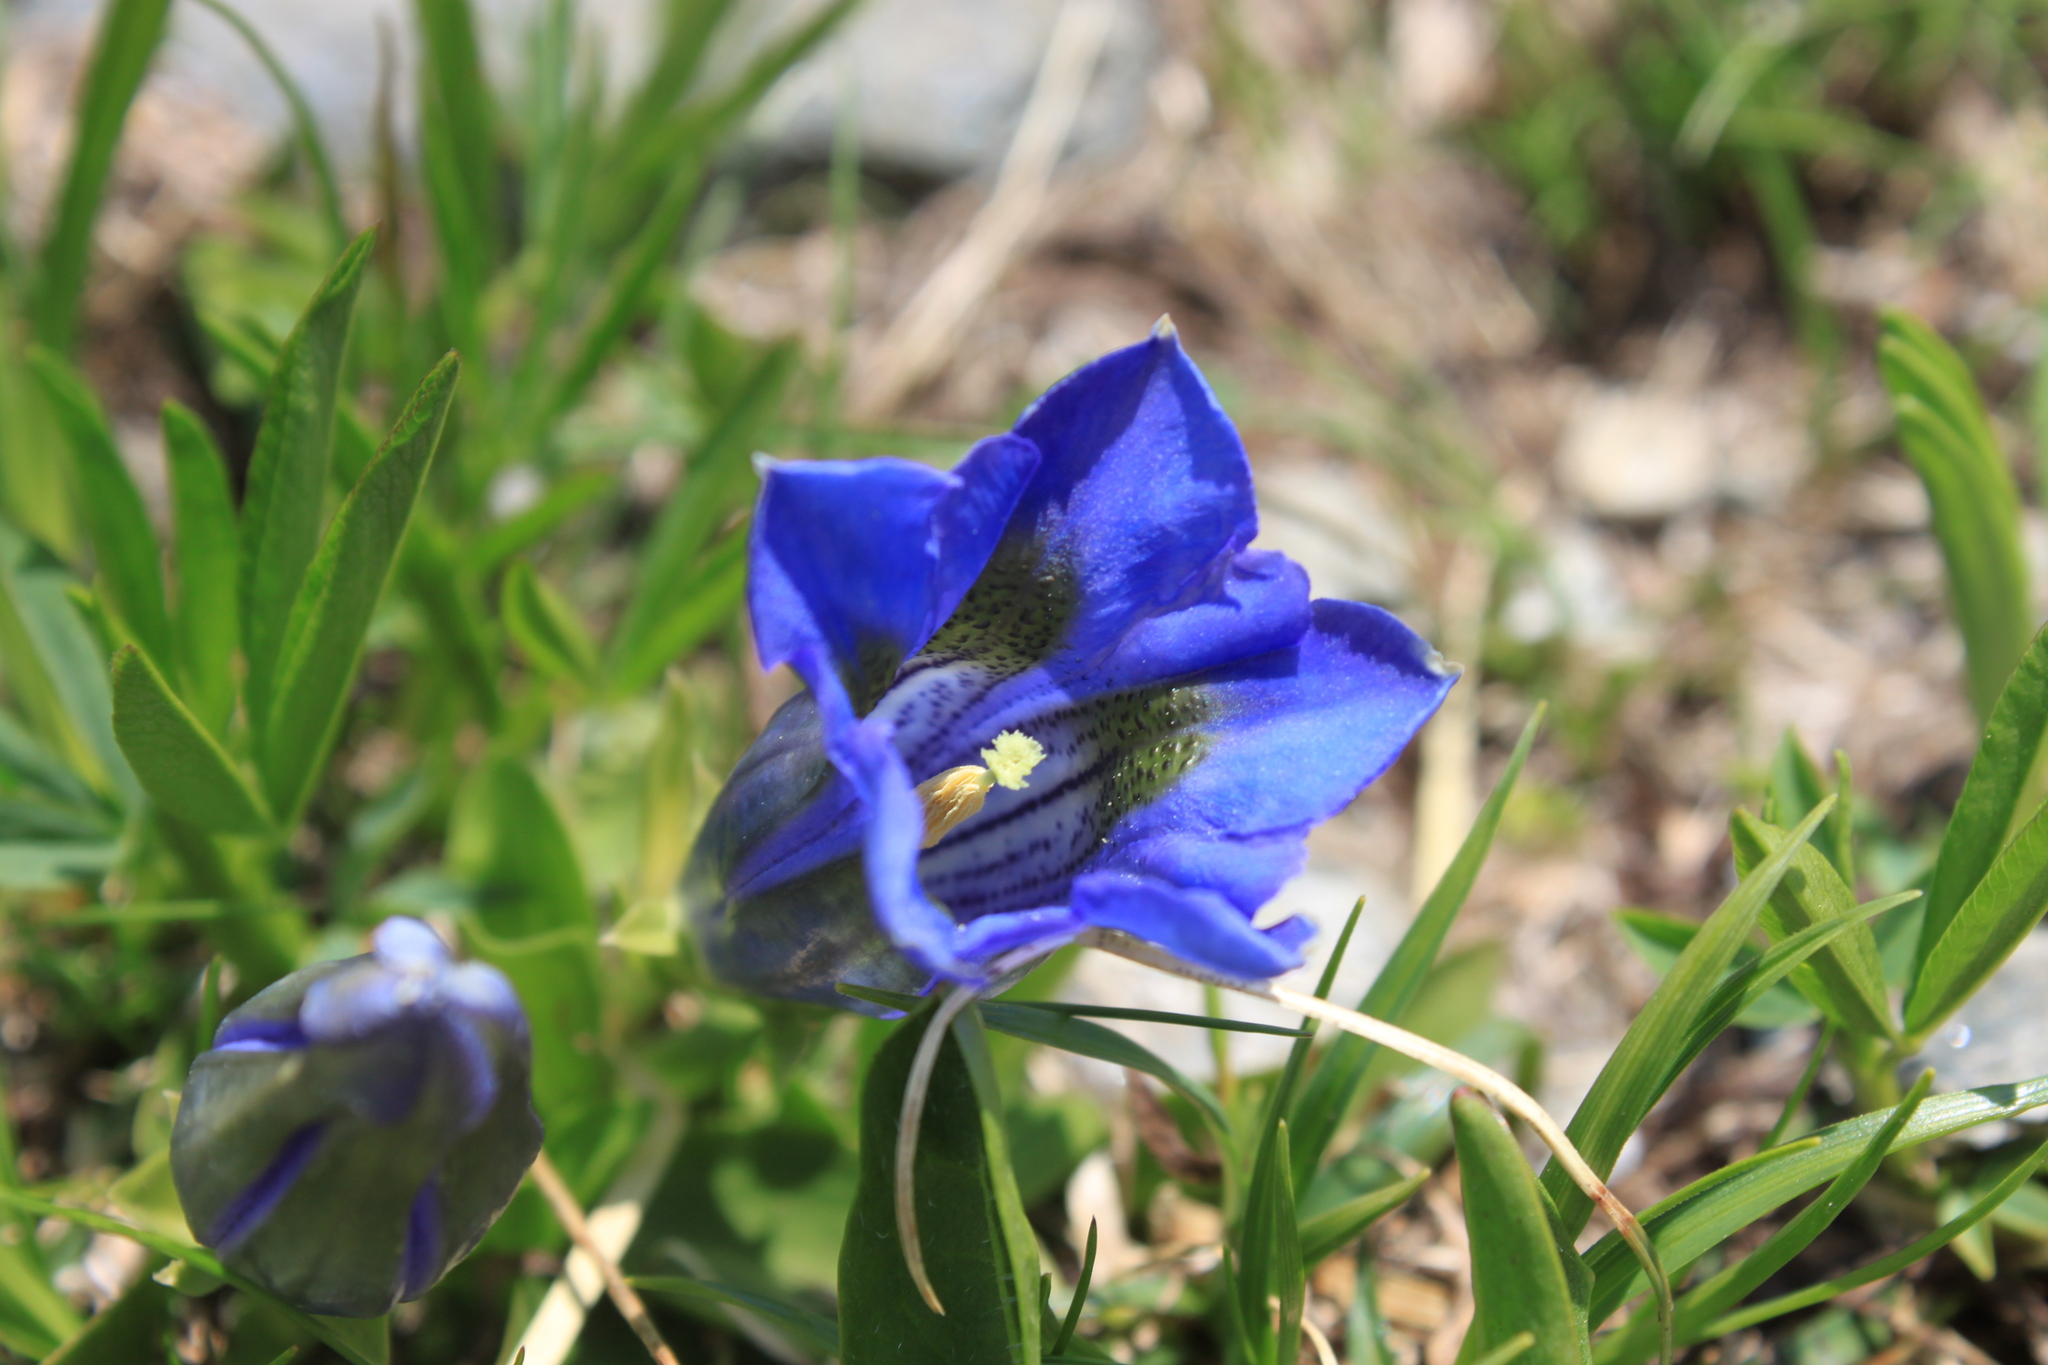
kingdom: Plantae
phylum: Tracheophyta
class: Magnoliopsida
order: Gentianales
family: Gentianaceae
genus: Gentiana
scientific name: Gentiana acaulis
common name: Trumpet gentian
